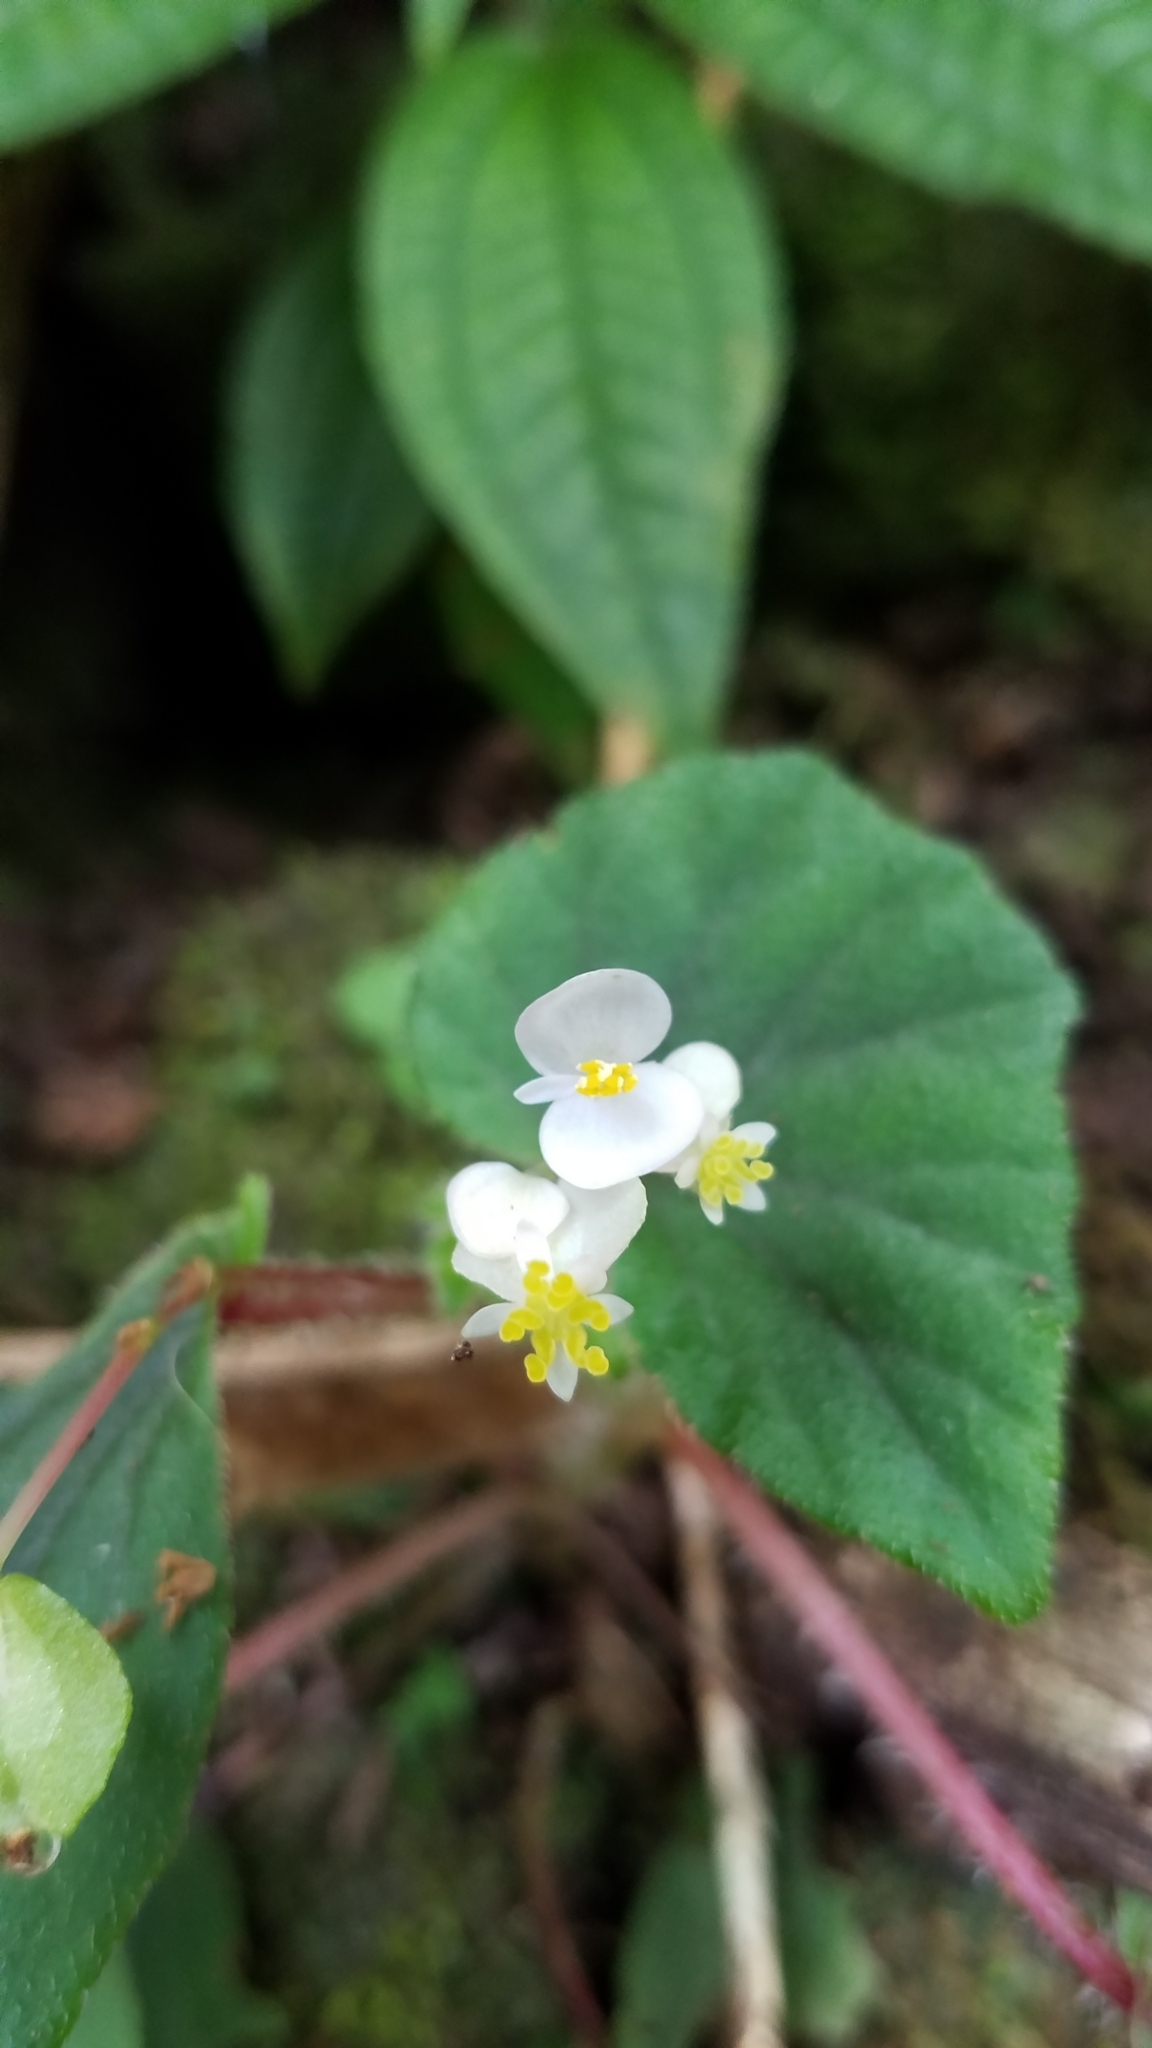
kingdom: Plantae
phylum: Tracheophyta
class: Magnoliopsida
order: Cucurbitales
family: Begoniaceae
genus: Begonia
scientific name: Begonia hirtella
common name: Brazilian begonia
